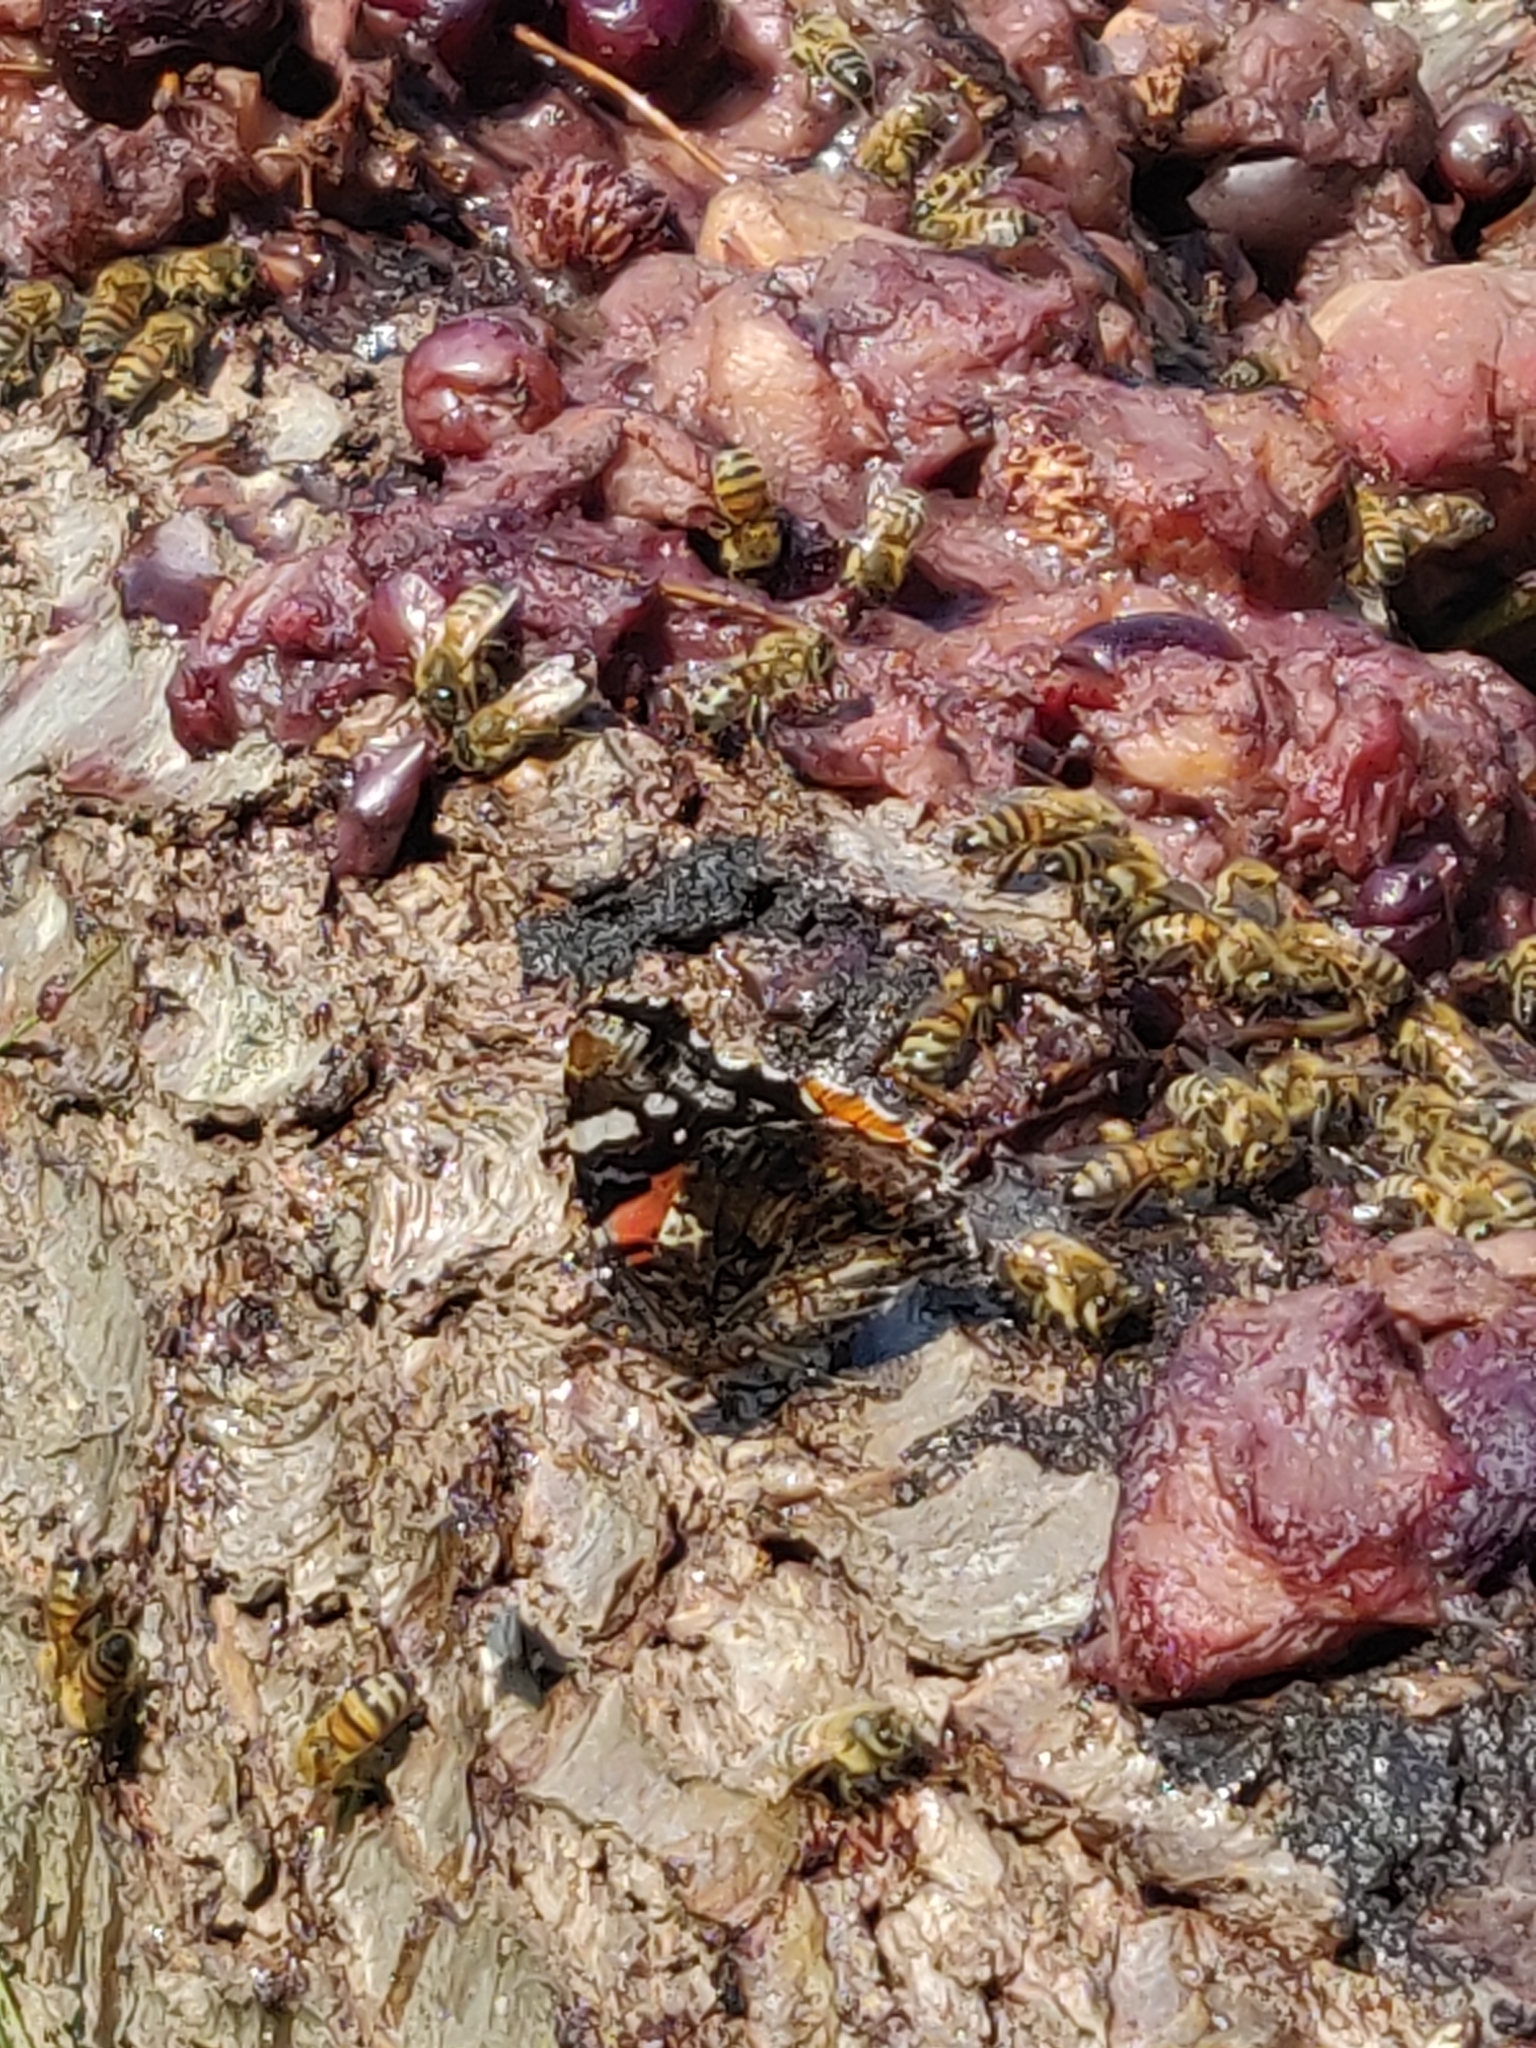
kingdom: Animalia
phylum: Arthropoda
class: Insecta
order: Lepidoptera
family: Nymphalidae
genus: Vanessa
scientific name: Vanessa atalanta
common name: Red admiral
